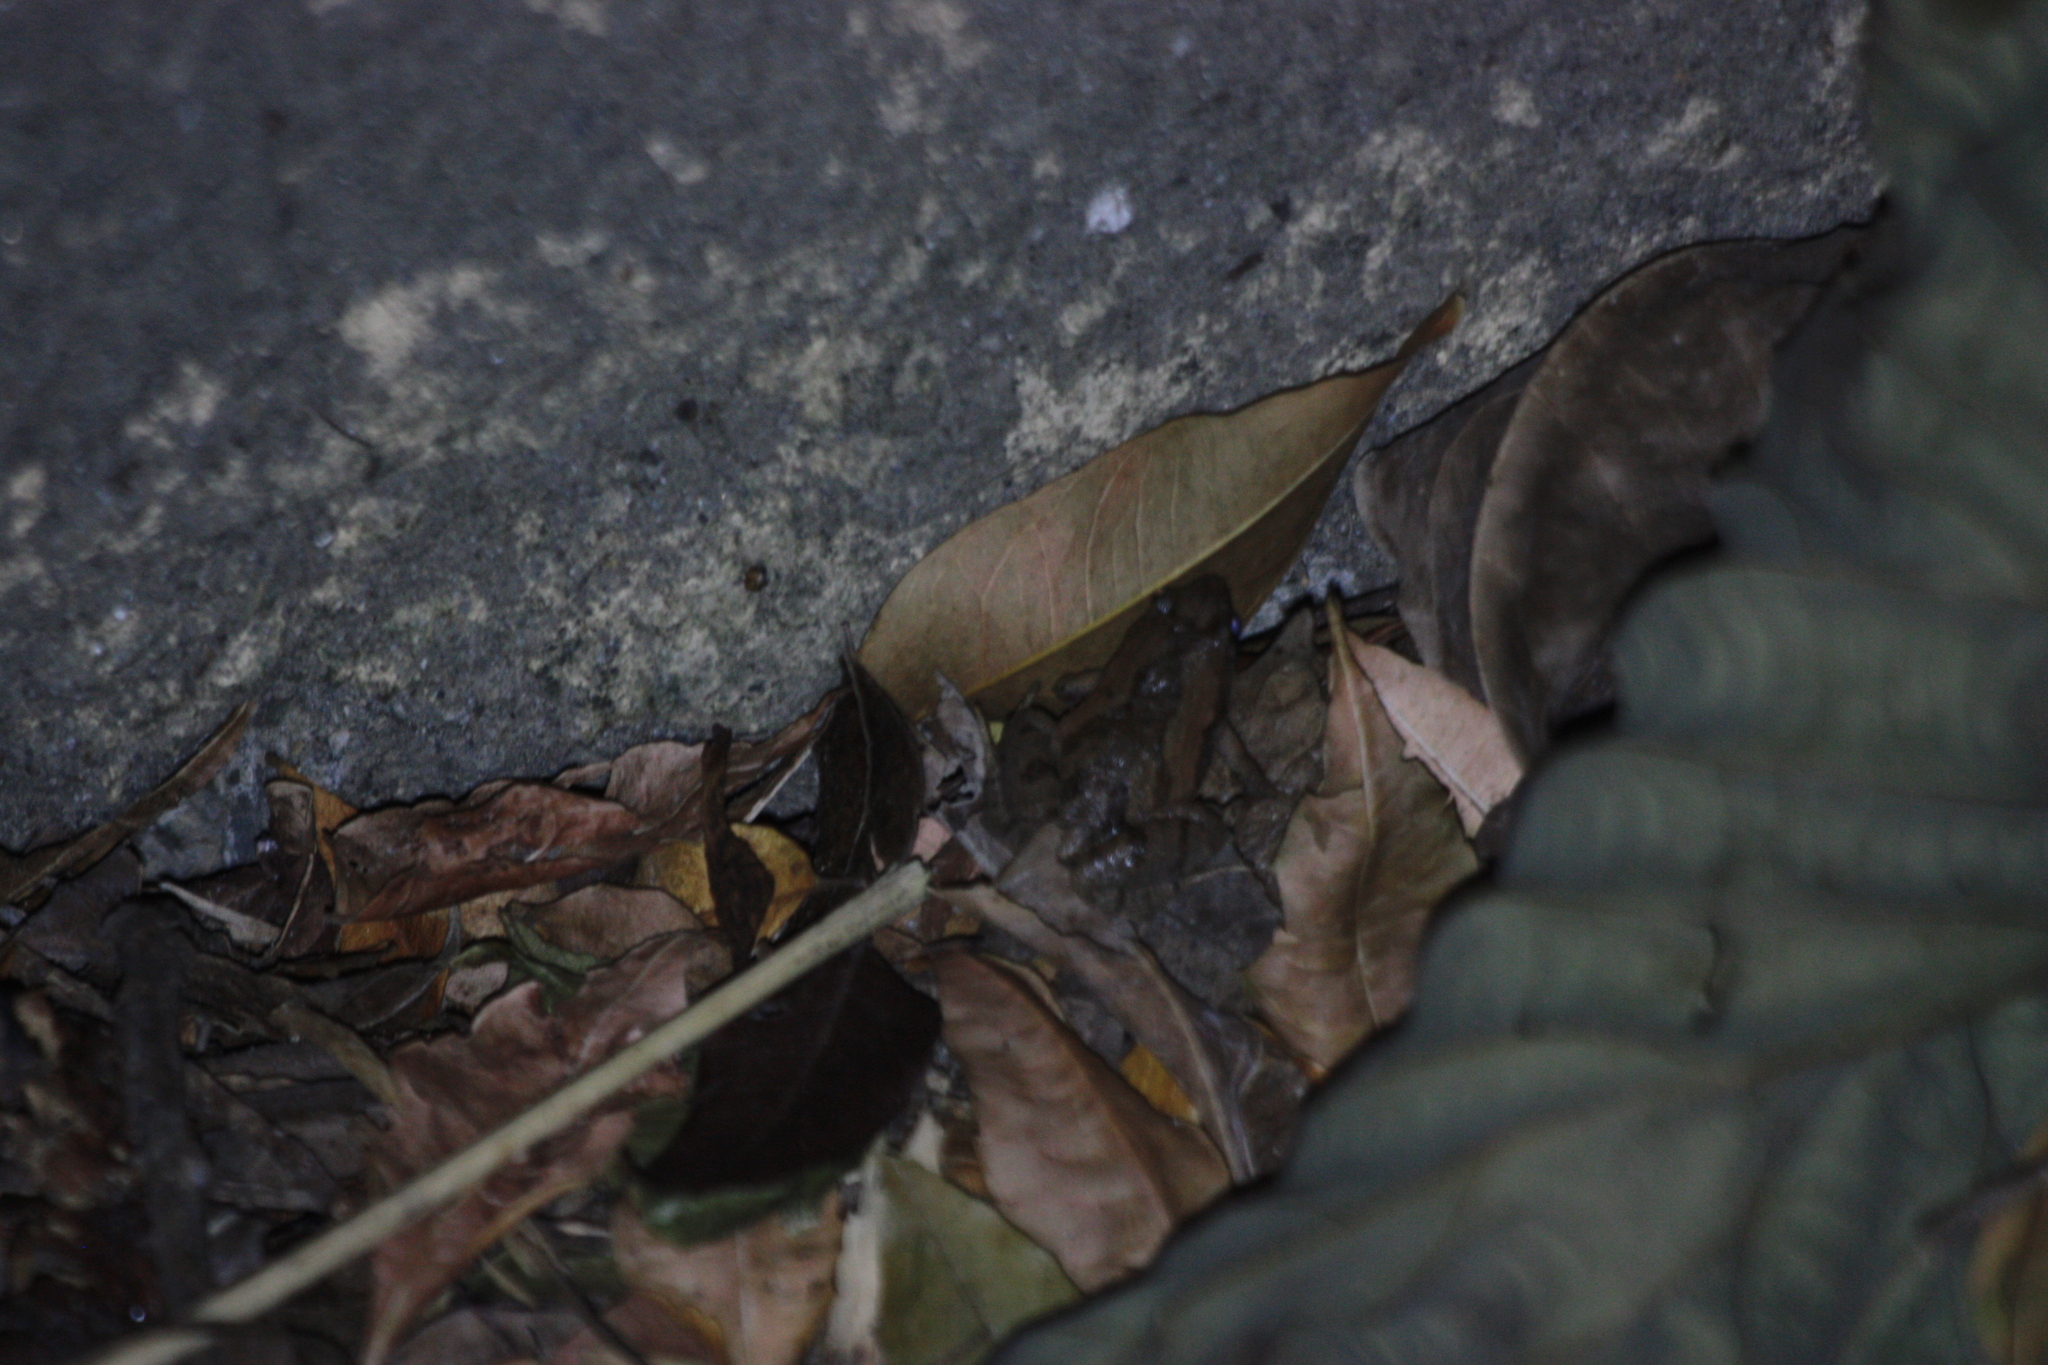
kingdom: Animalia
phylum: Chordata
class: Amphibia
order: Anura
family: Microhylidae
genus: Microhyla
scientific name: Microhyla fissipes
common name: Ornate narrow-mouthed frog
